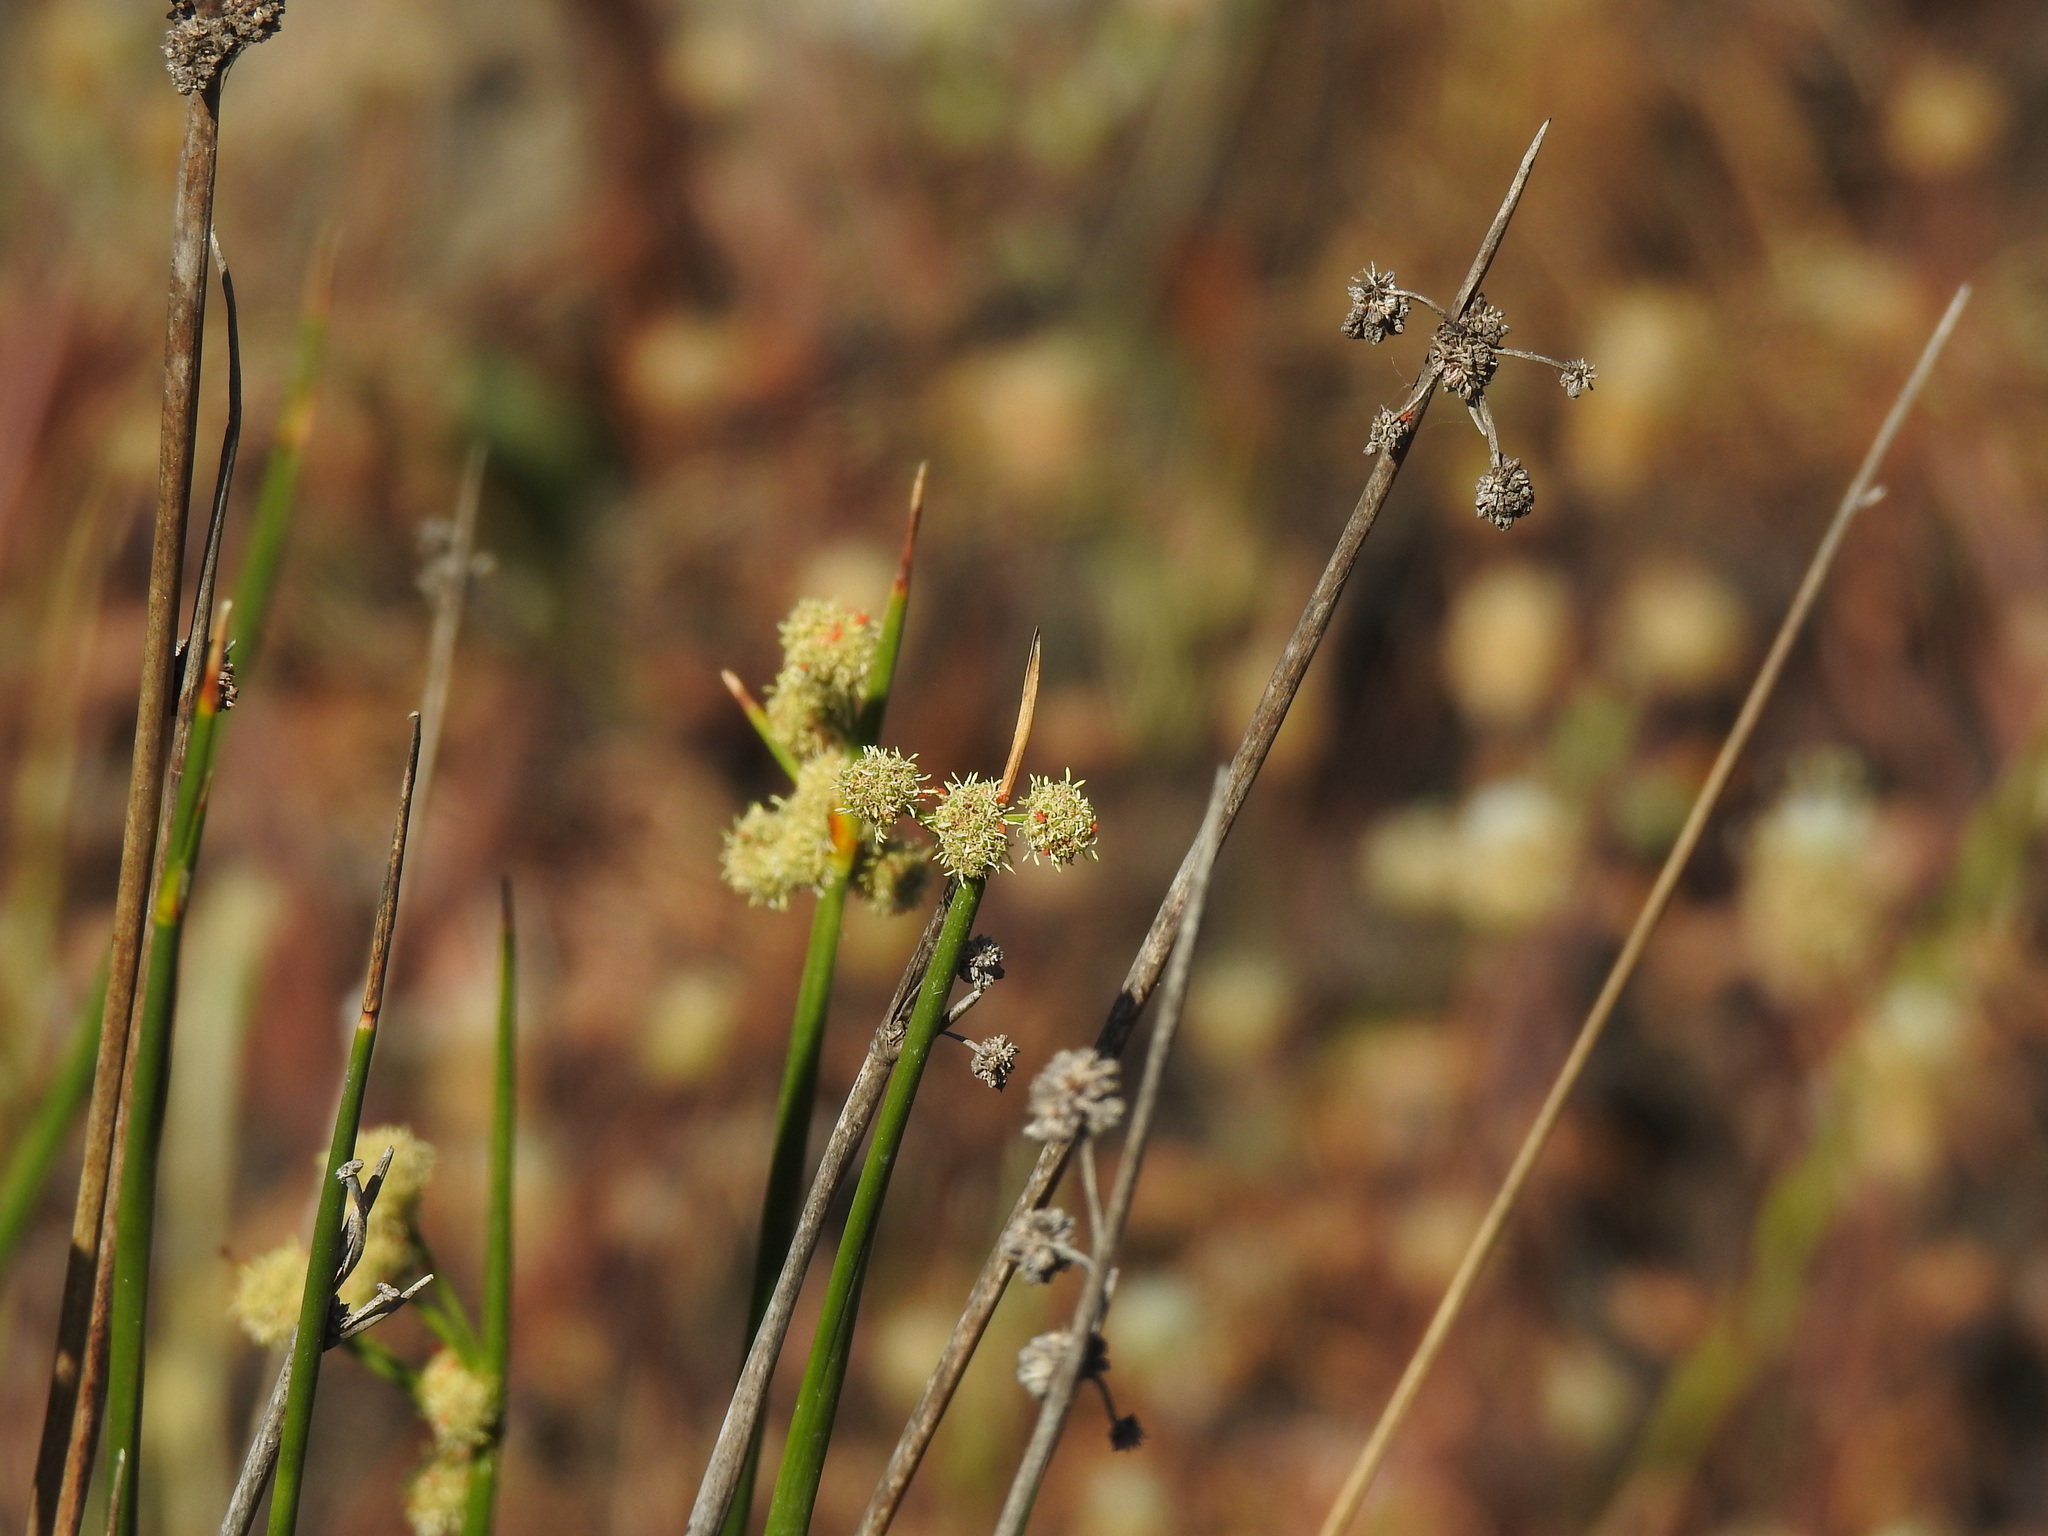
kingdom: Plantae
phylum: Tracheophyta
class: Liliopsida
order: Poales
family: Cyperaceae
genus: Scirpoides
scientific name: Scirpoides holoschoenus
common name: Round-headed club-rush
